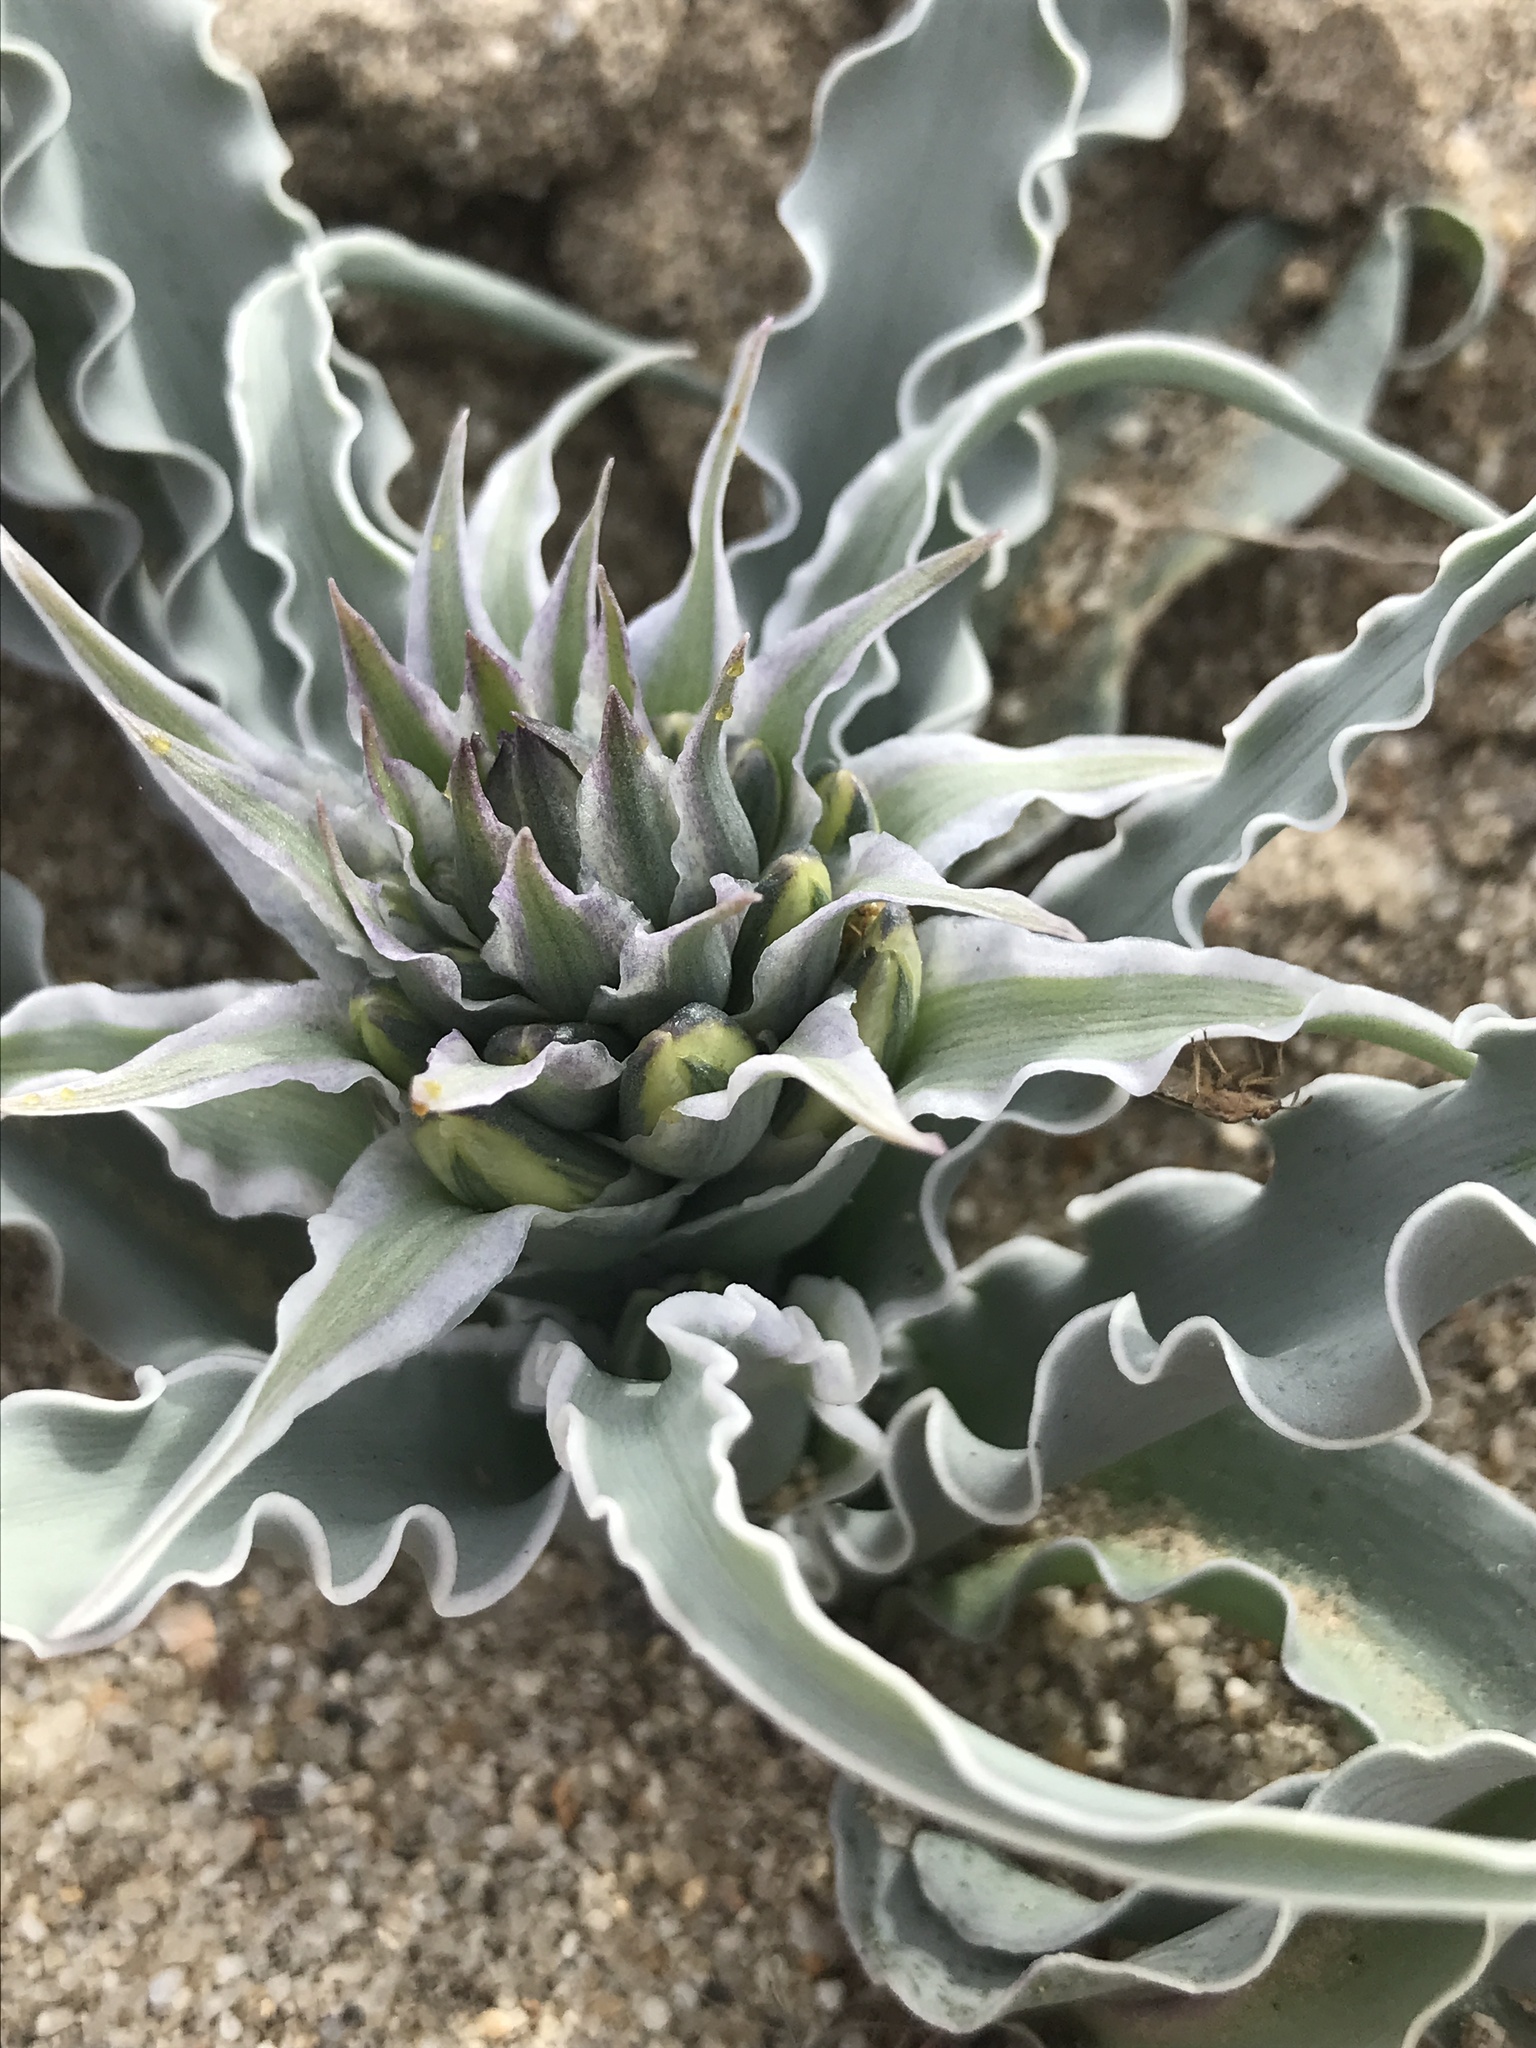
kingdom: Plantae
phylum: Tracheophyta
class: Liliopsida
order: Asparagales
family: Asparagaceae
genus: Hesperocallis
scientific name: Hesperocallis undulata
